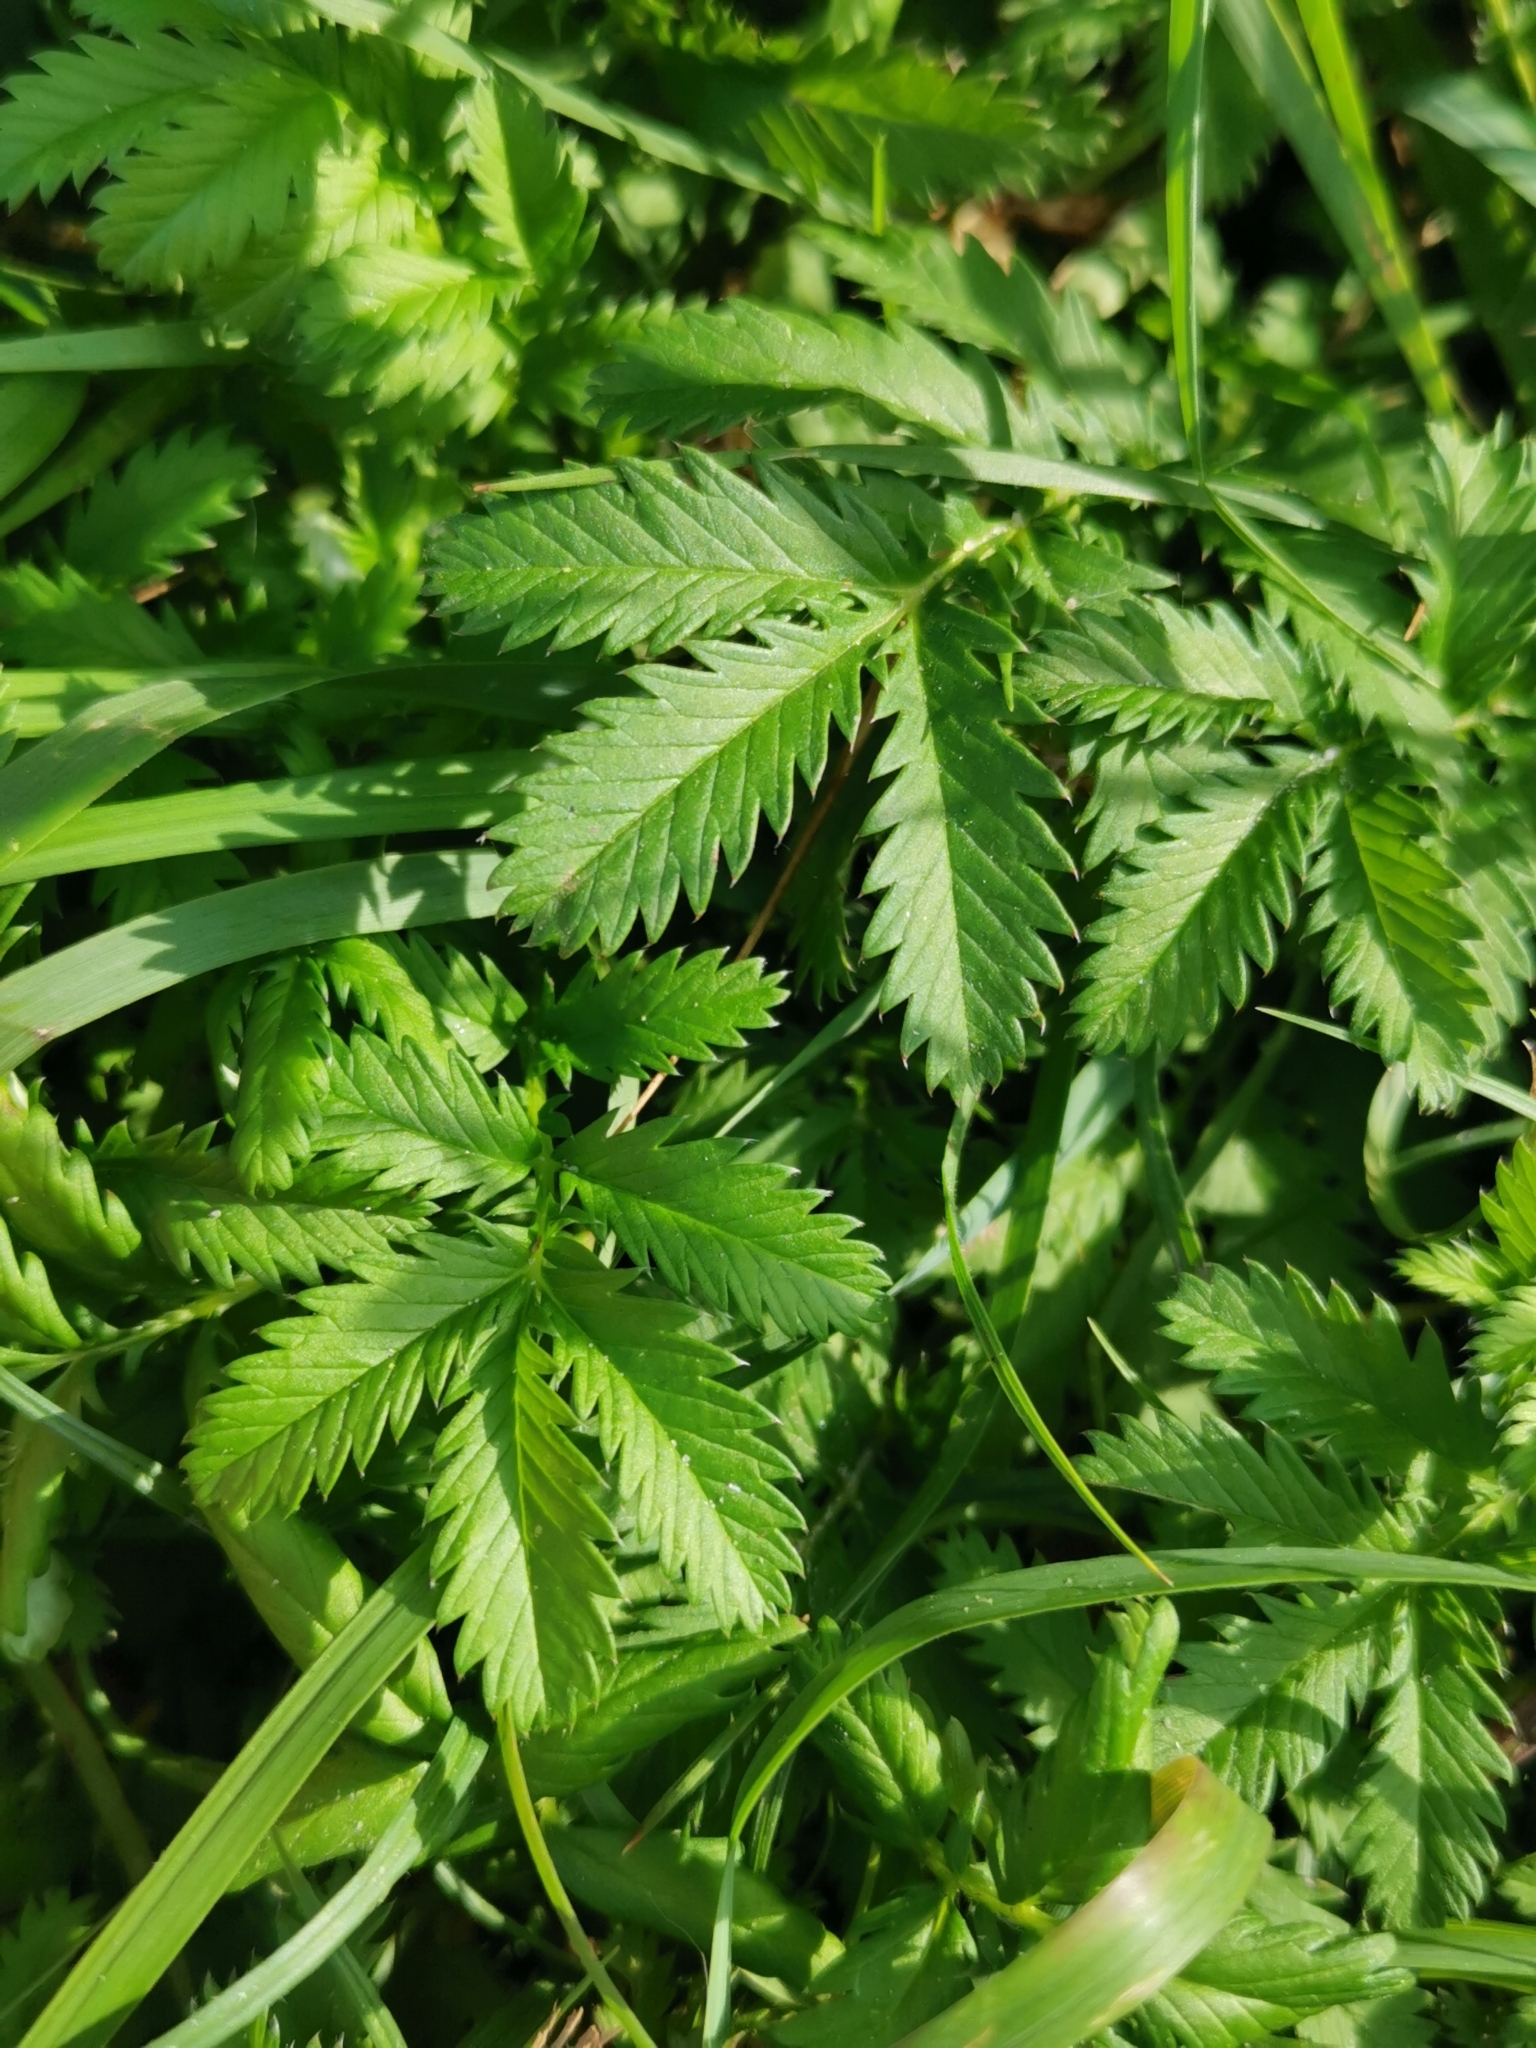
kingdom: Plantae
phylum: Tracheophyta
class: Magnoliopsida
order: Rosales
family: Rosaceae
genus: Argentina
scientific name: Argentina anserina
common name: Common silverweed
